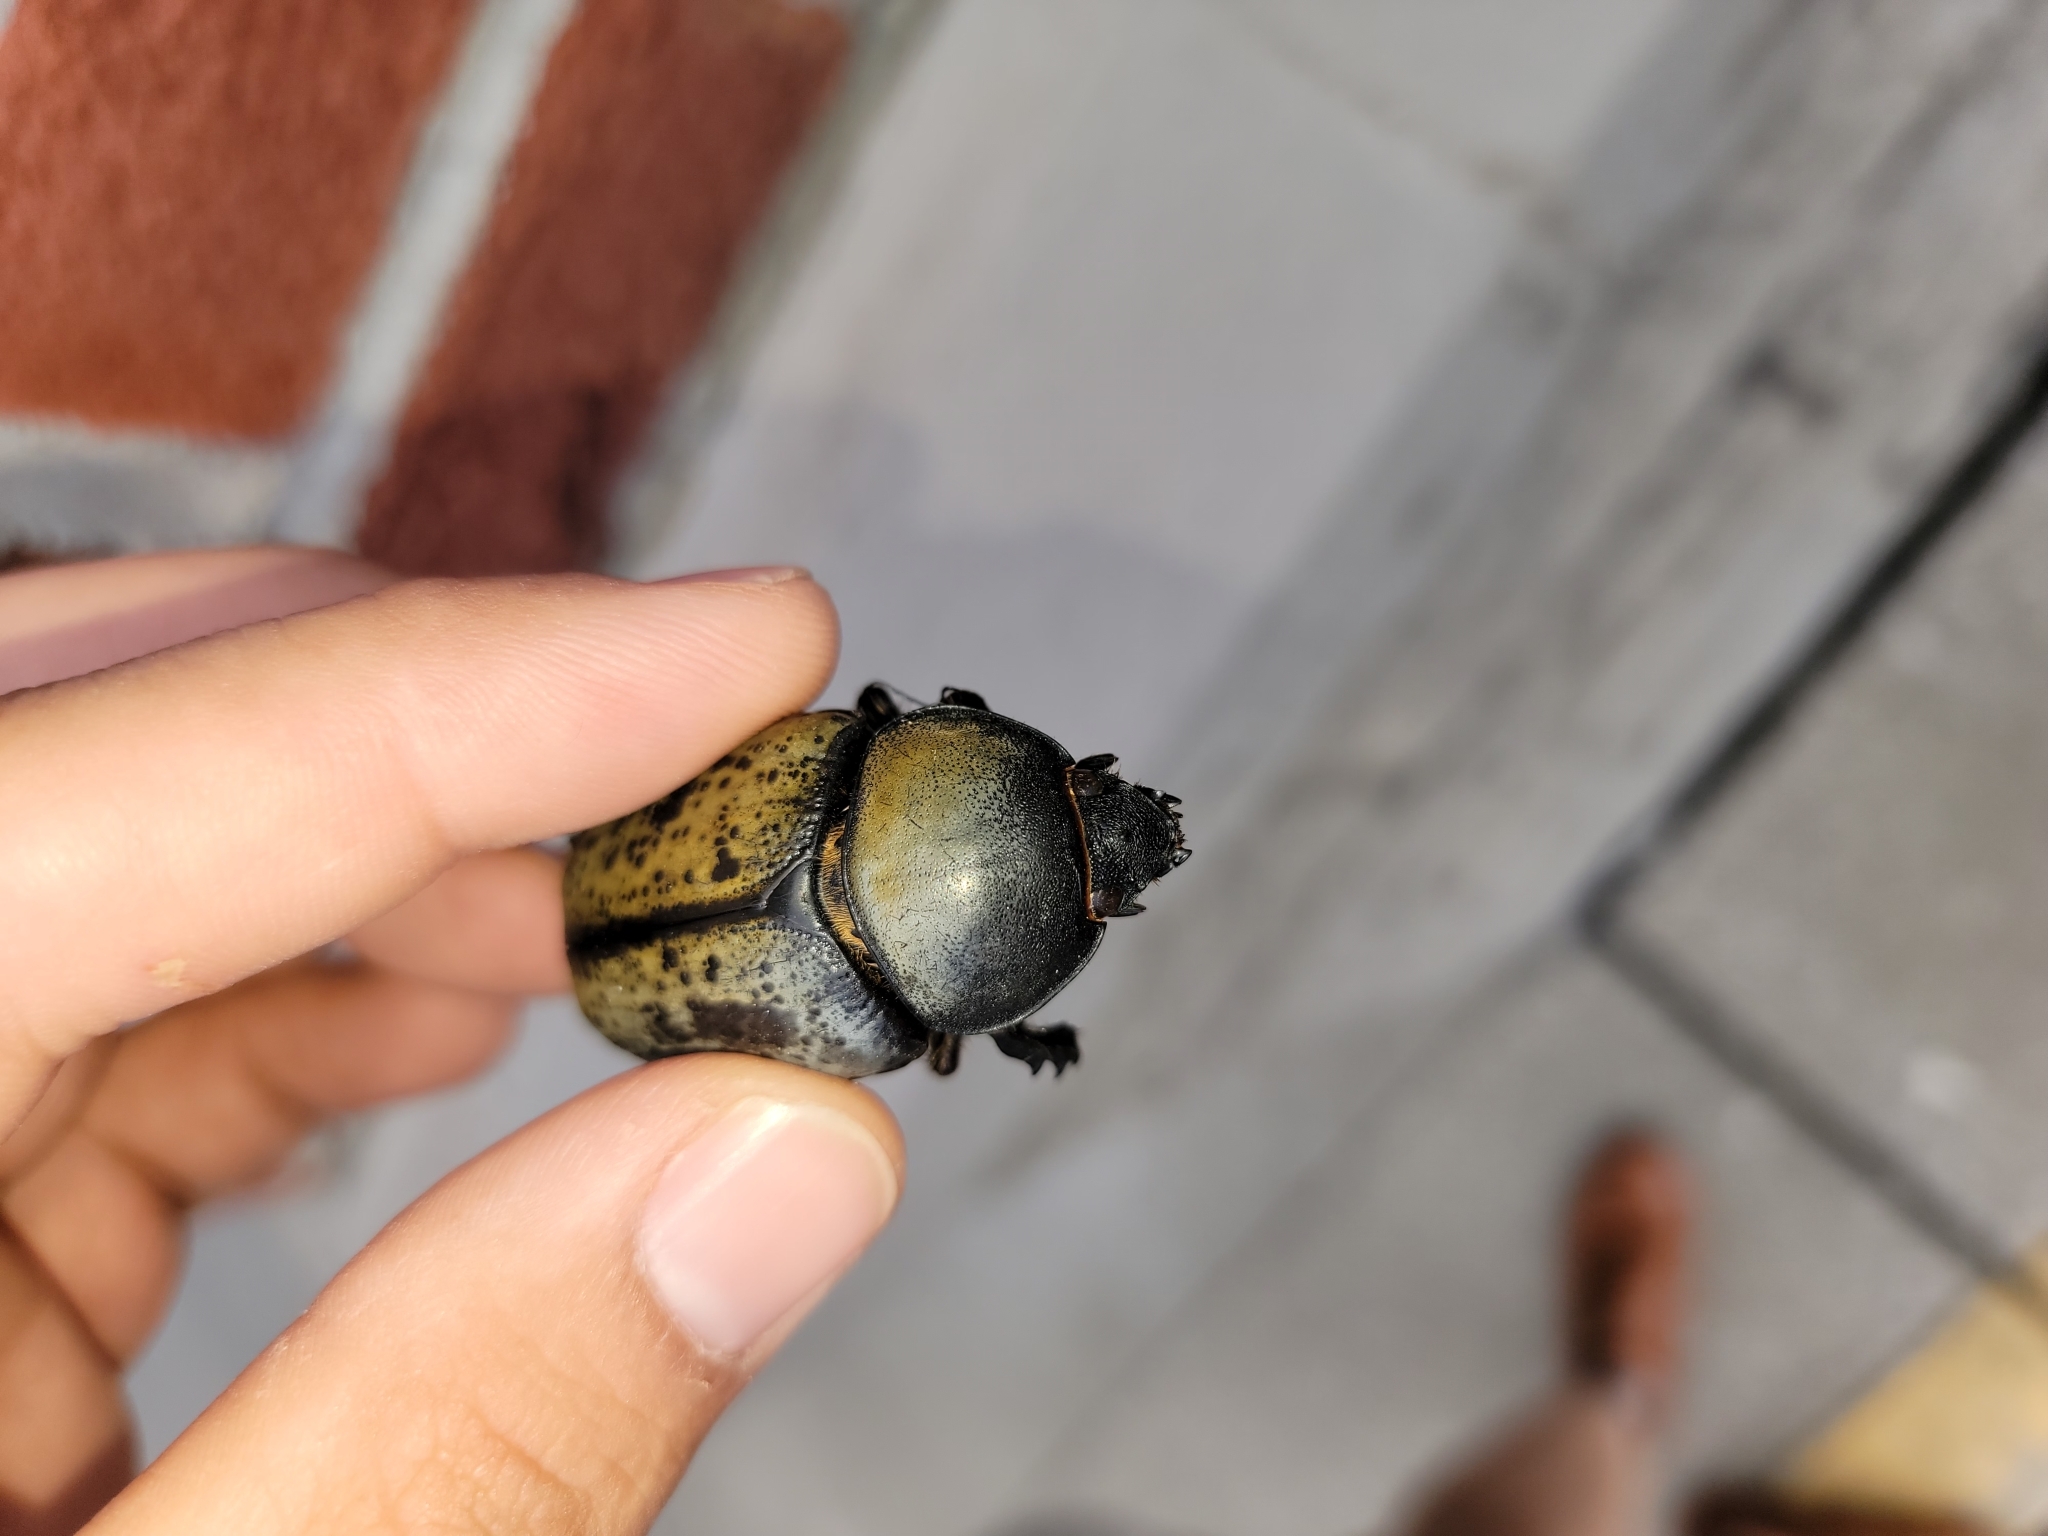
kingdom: Animalia
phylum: Arthropoda
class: Insecta
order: Coleoptera
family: Scarabaeidae
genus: Dynastes
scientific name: Dynastes tityus
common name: Eastern hercules beetle
